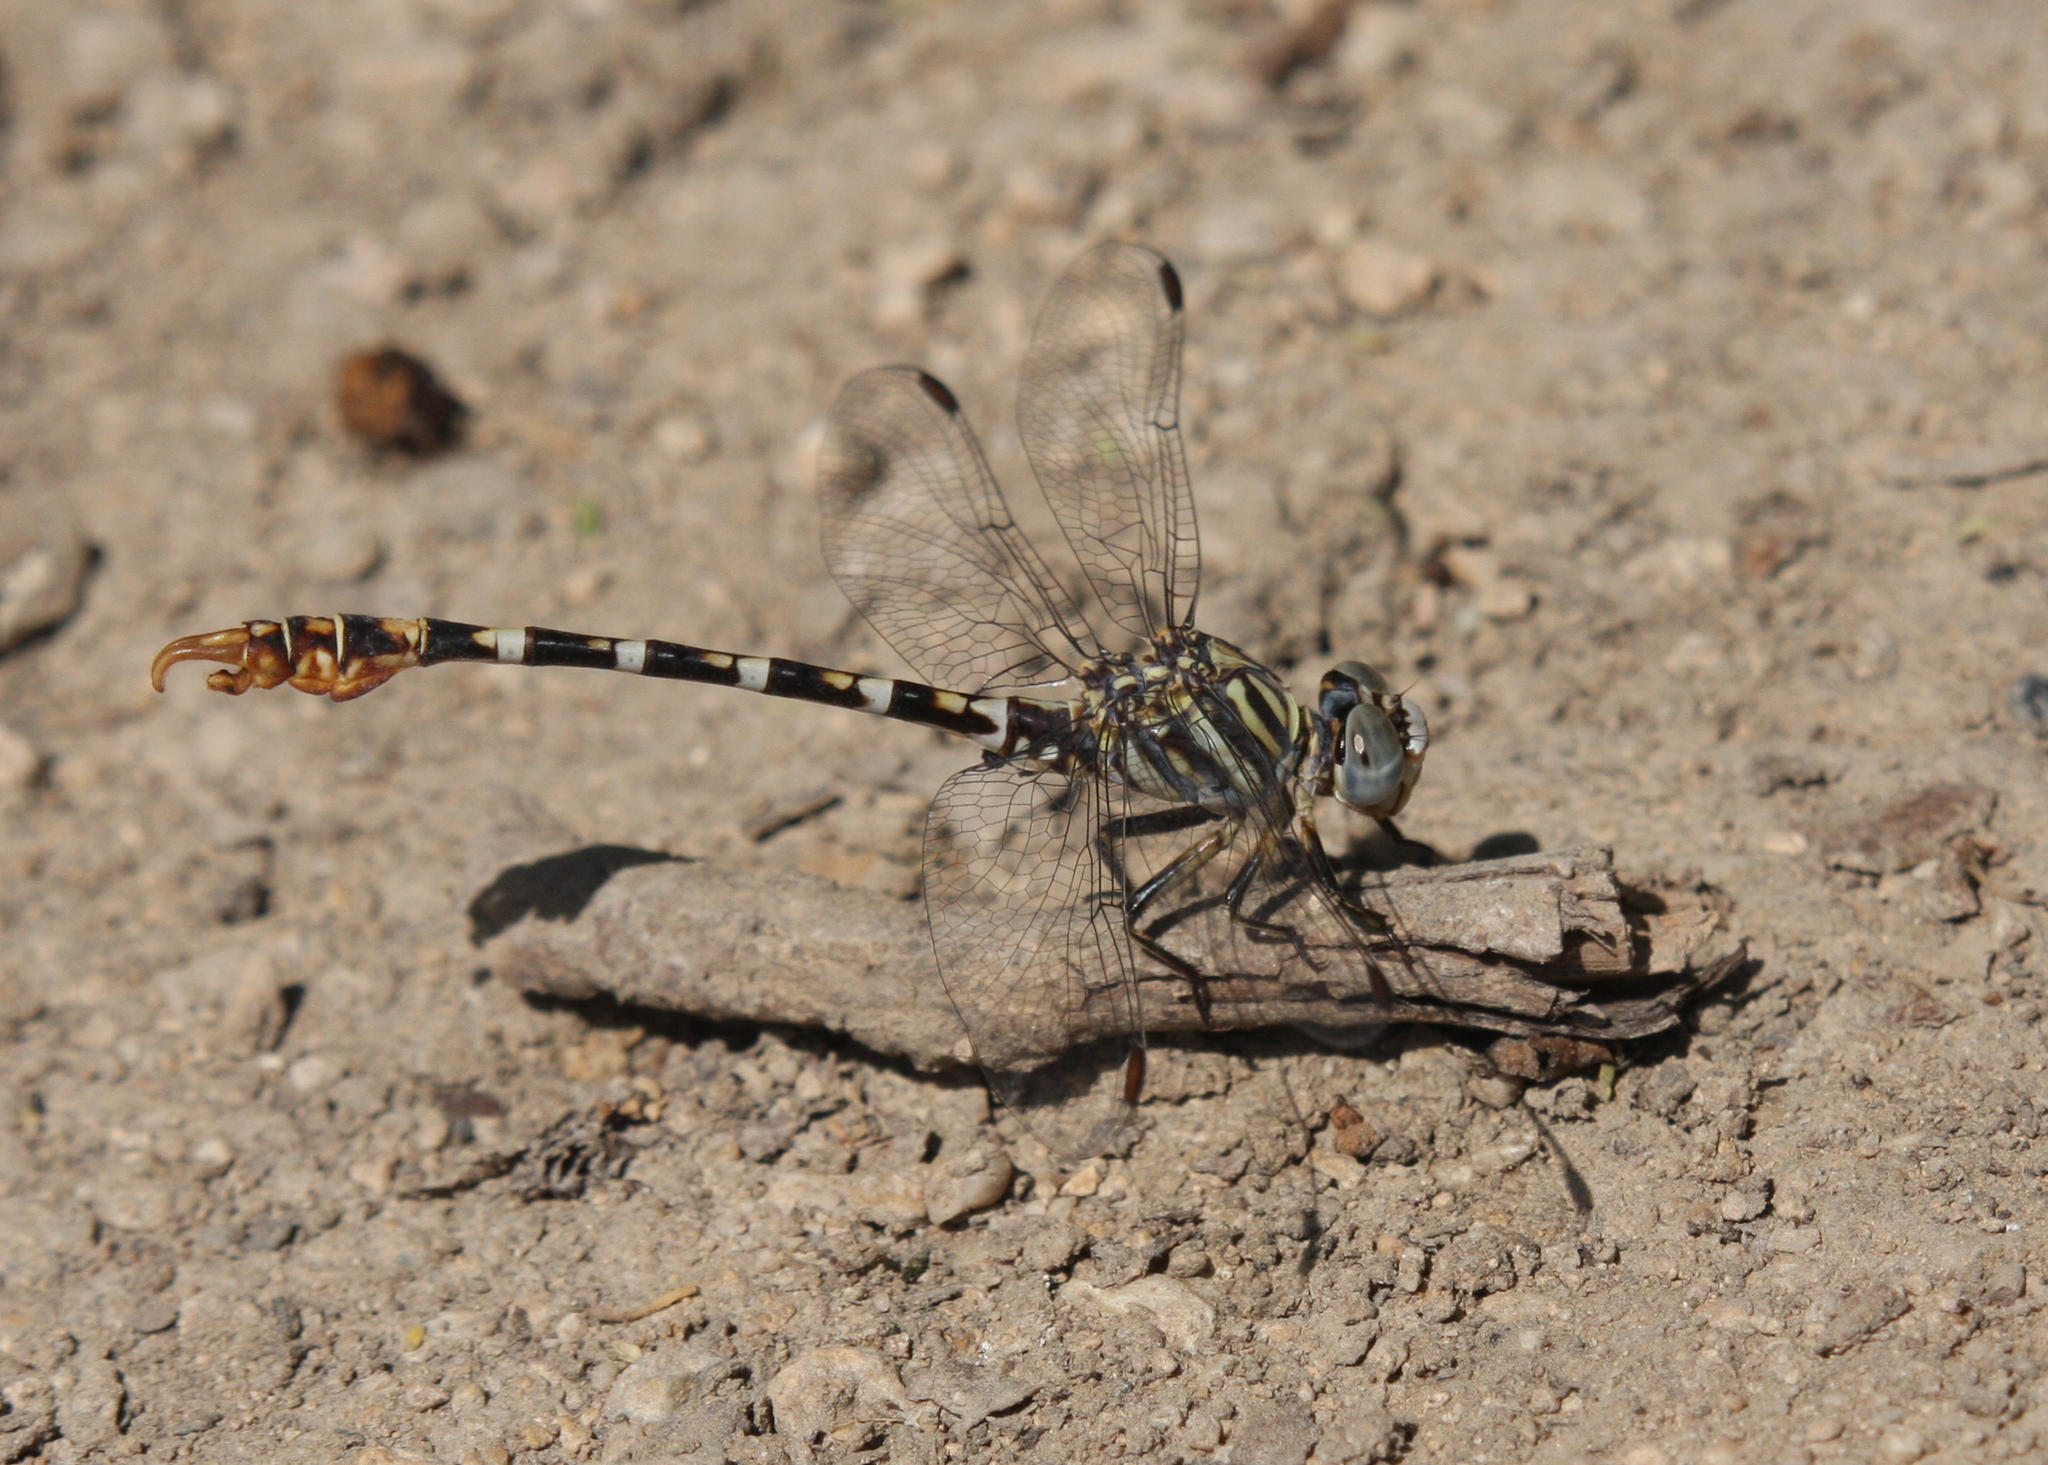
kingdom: Animalia
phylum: Arthropoda
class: Insecta
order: Odonata
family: Gomphidae
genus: Paragomphus
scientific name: Paragomphus sinaiticus
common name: Sinai hooktail
